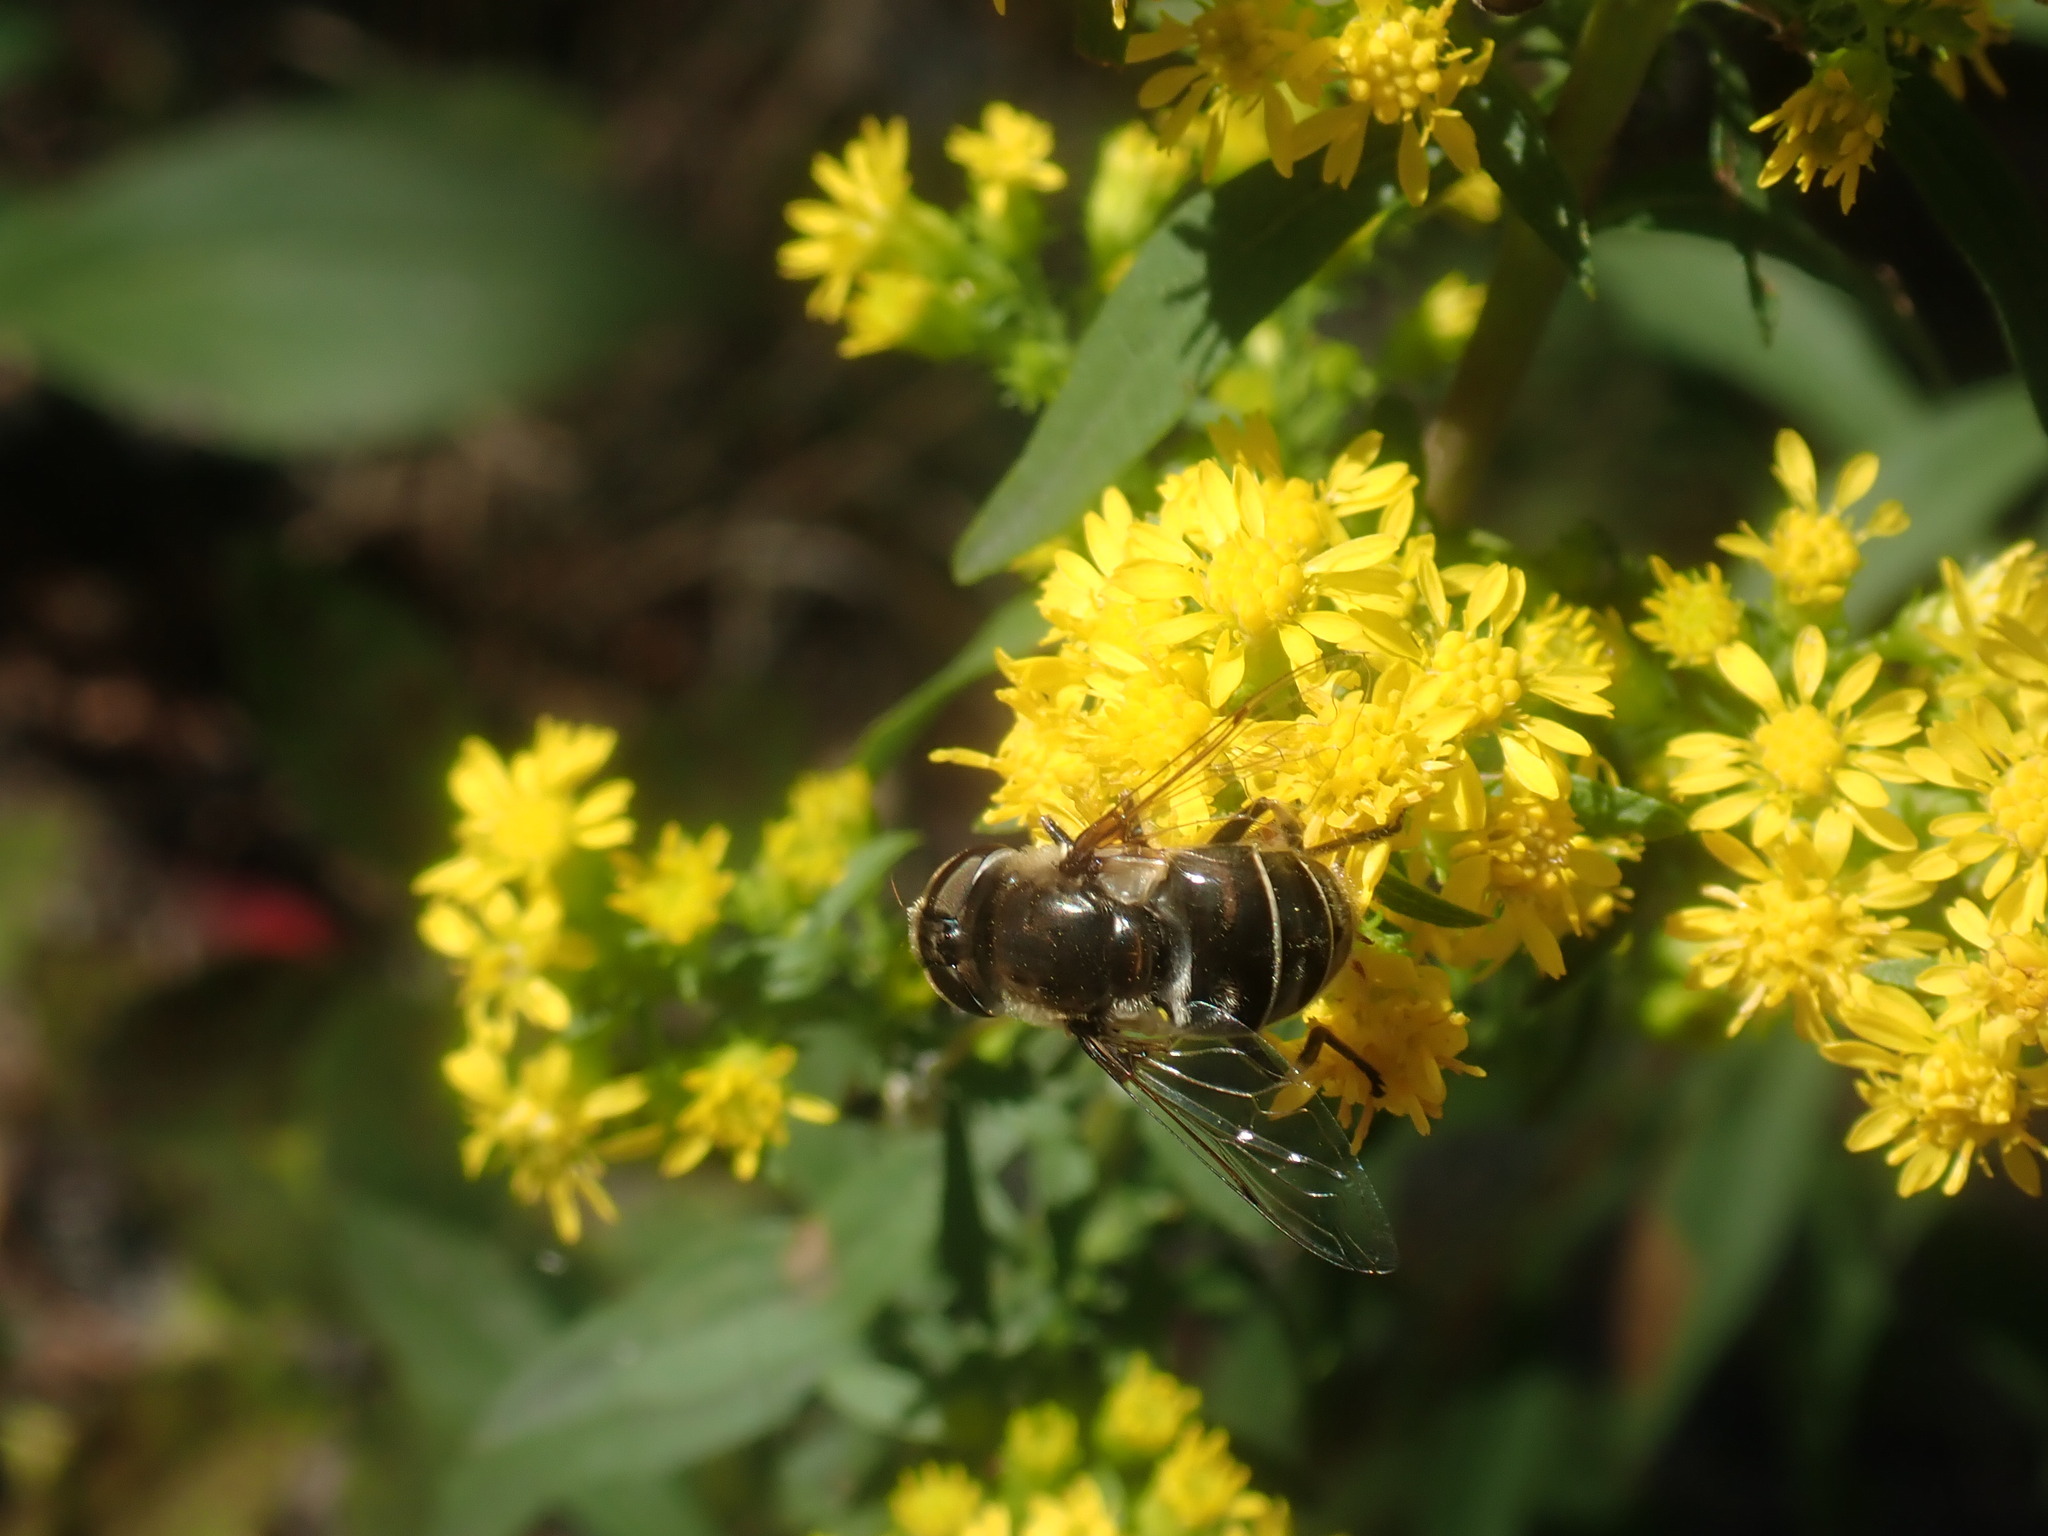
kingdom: Animalia
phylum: Arthropoda
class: Insecta
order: Diptera
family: Syrphidae
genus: Eristalis
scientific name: Eristalis dimidiata
